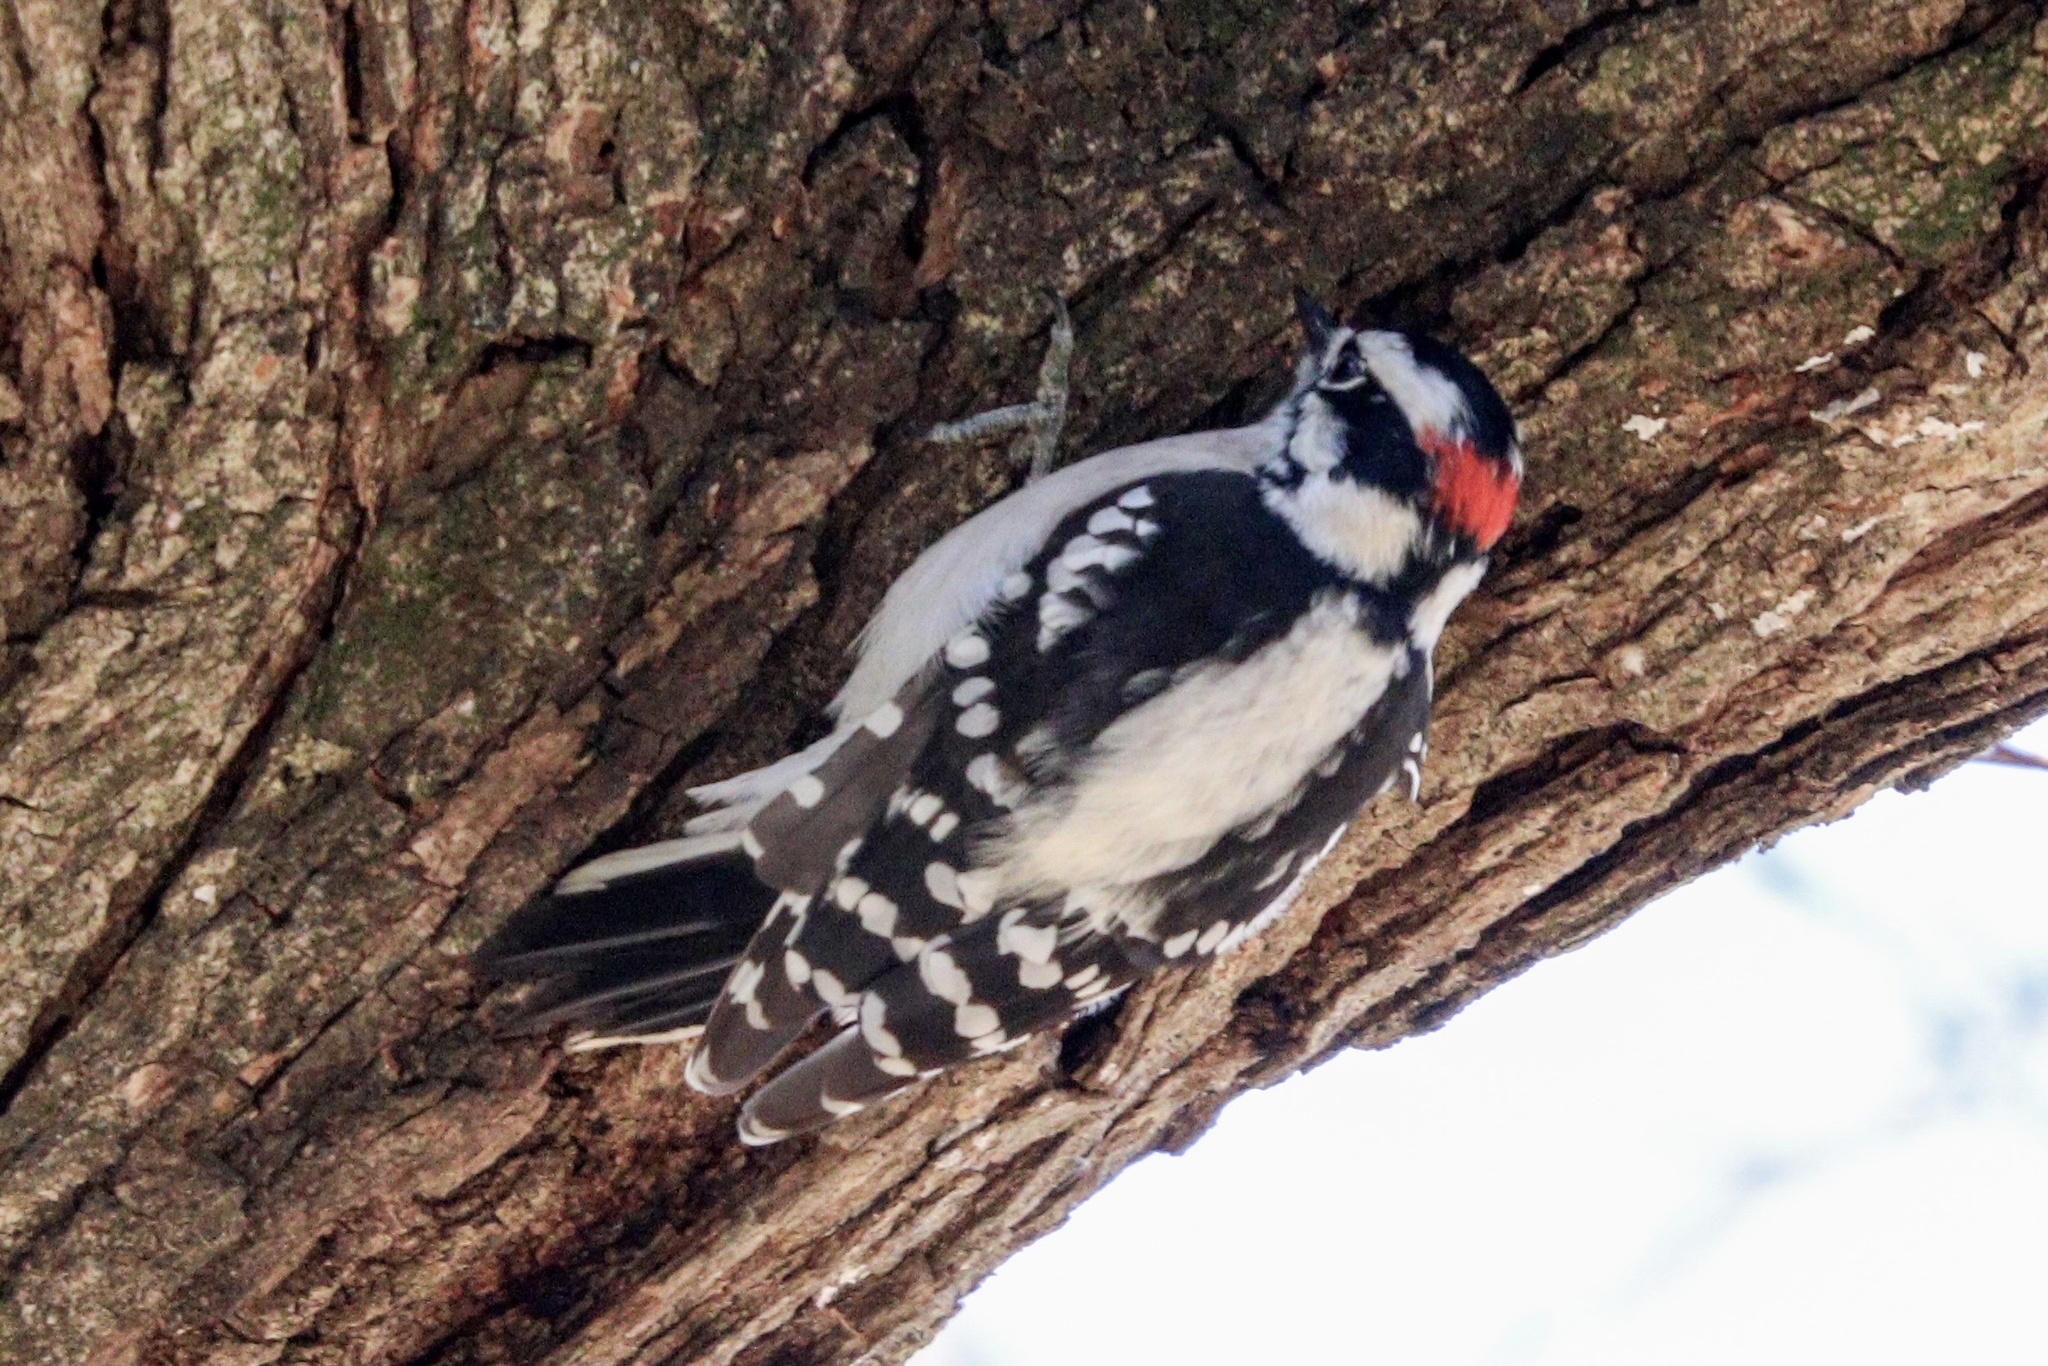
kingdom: Animalia
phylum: Chordata
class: Aves
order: Piciformes
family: Picidae
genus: Dryobates
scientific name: Dryobates pubescens
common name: Downy woodpecker
